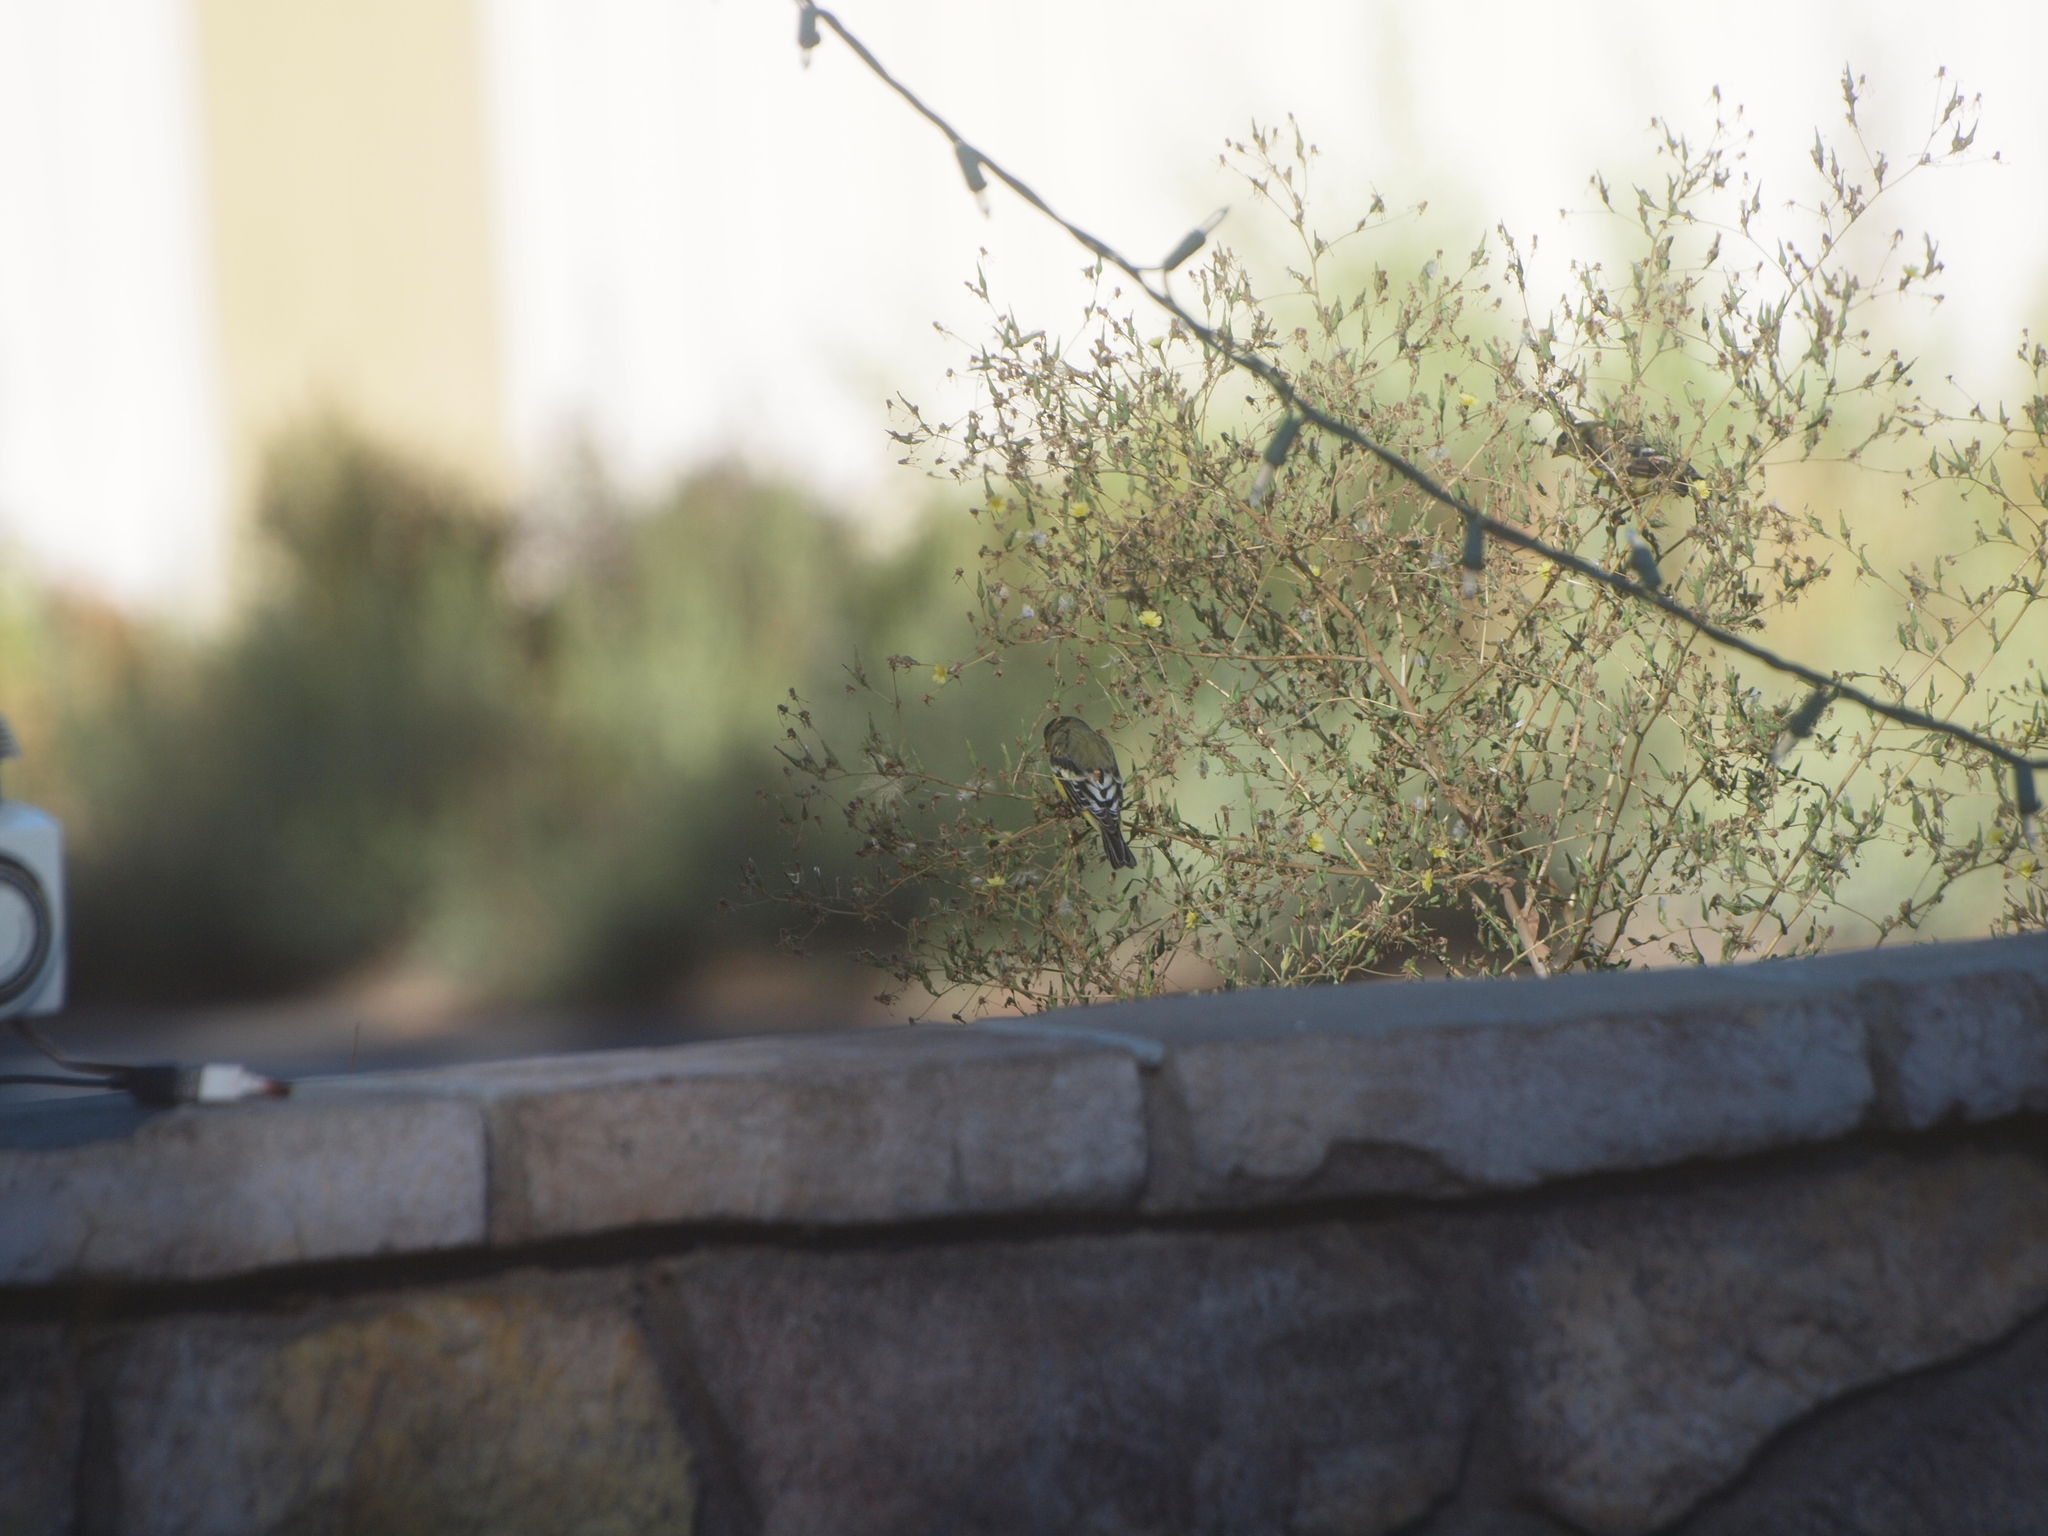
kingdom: Animalia
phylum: Chordata
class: Aves
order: Passeriformes
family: Fringillidae
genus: Spinus
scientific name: Spinus psaltria
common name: Lesser goldfinch
